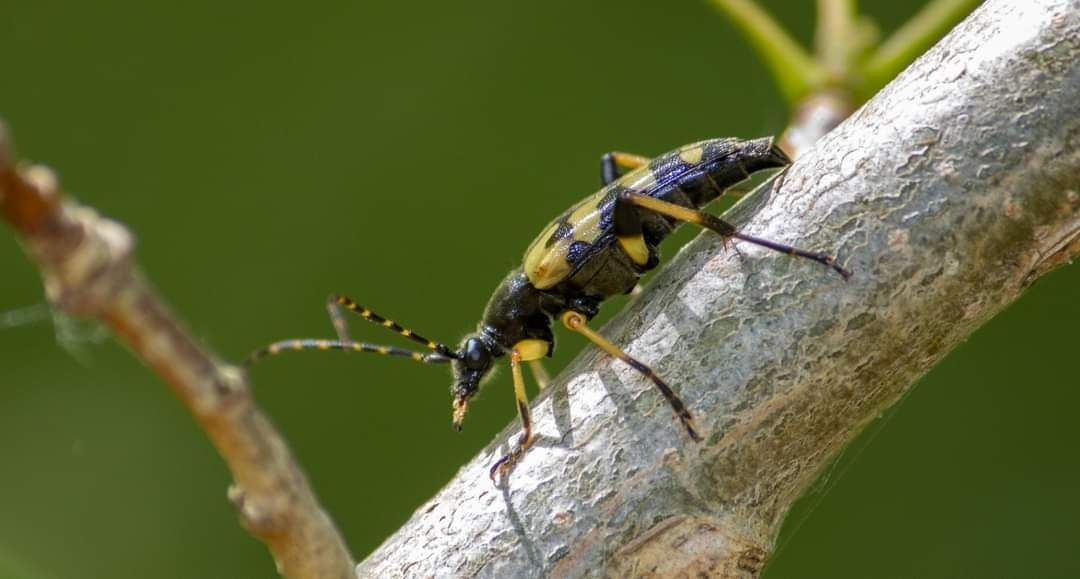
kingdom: Animalia
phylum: Arthropoda
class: Insecta
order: Coleoptera
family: Cerambycidae
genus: Rutpela
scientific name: Rutpela maculata
